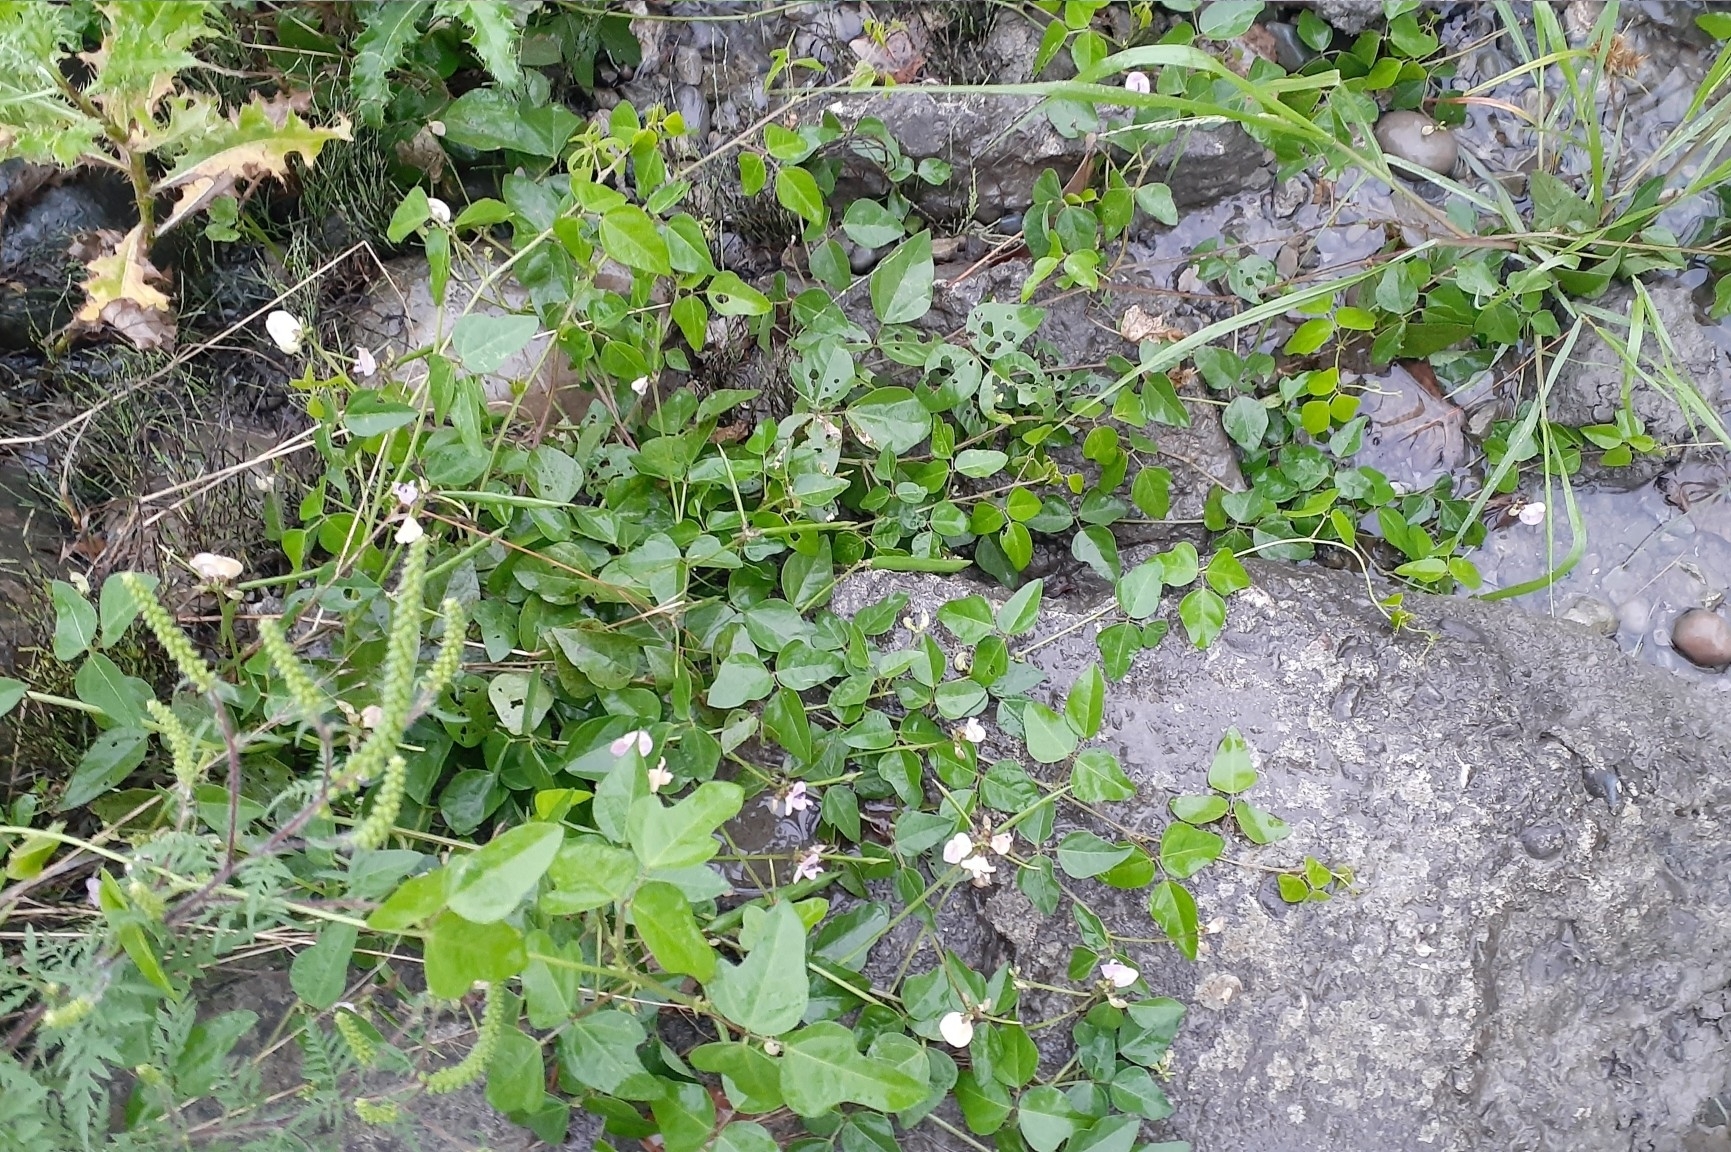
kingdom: Plantae
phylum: Tracheophyta
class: Magnoliopsida
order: Fabales
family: Fabaceae
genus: Strophostyles
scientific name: Strophostyles helvola
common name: Trailing wild bean
